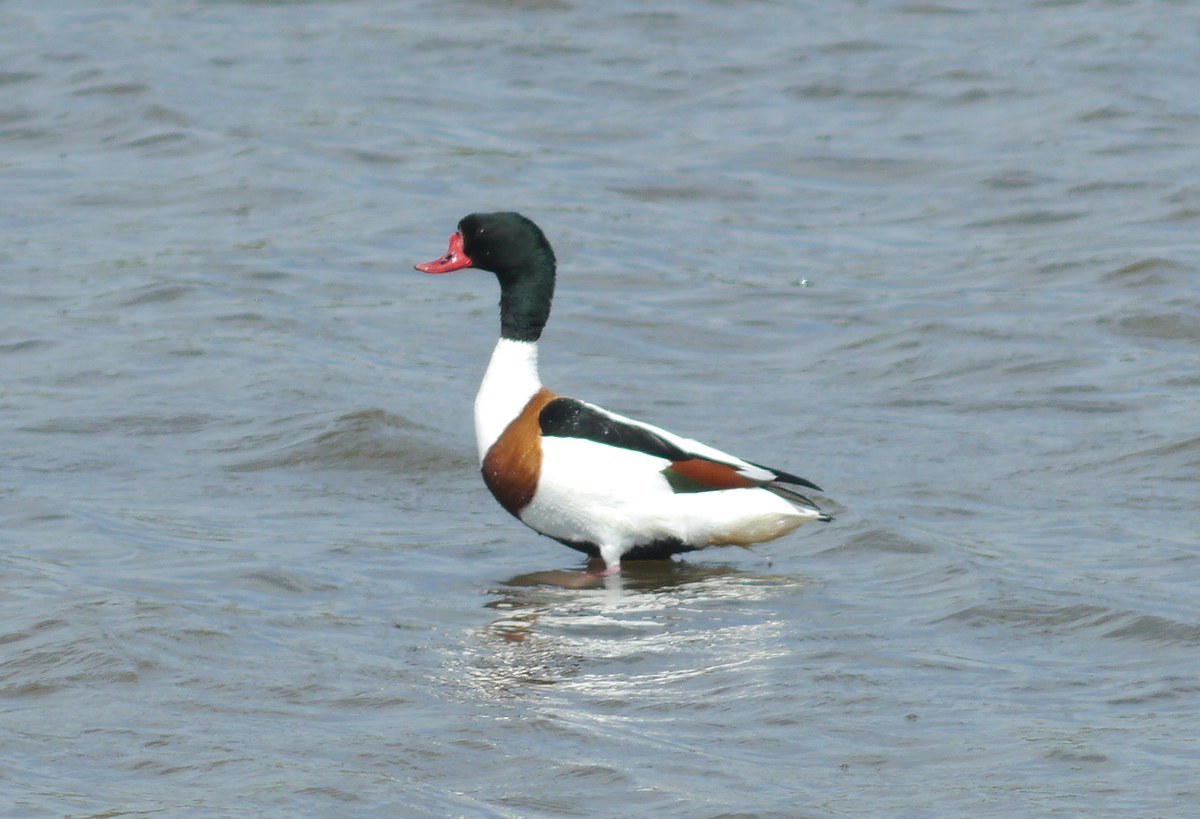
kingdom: Animalia
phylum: Chordata
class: Aves
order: Anseriformes
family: Anatidae
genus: Tadorna
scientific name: Tadorna tadorna
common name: Common shelduck
